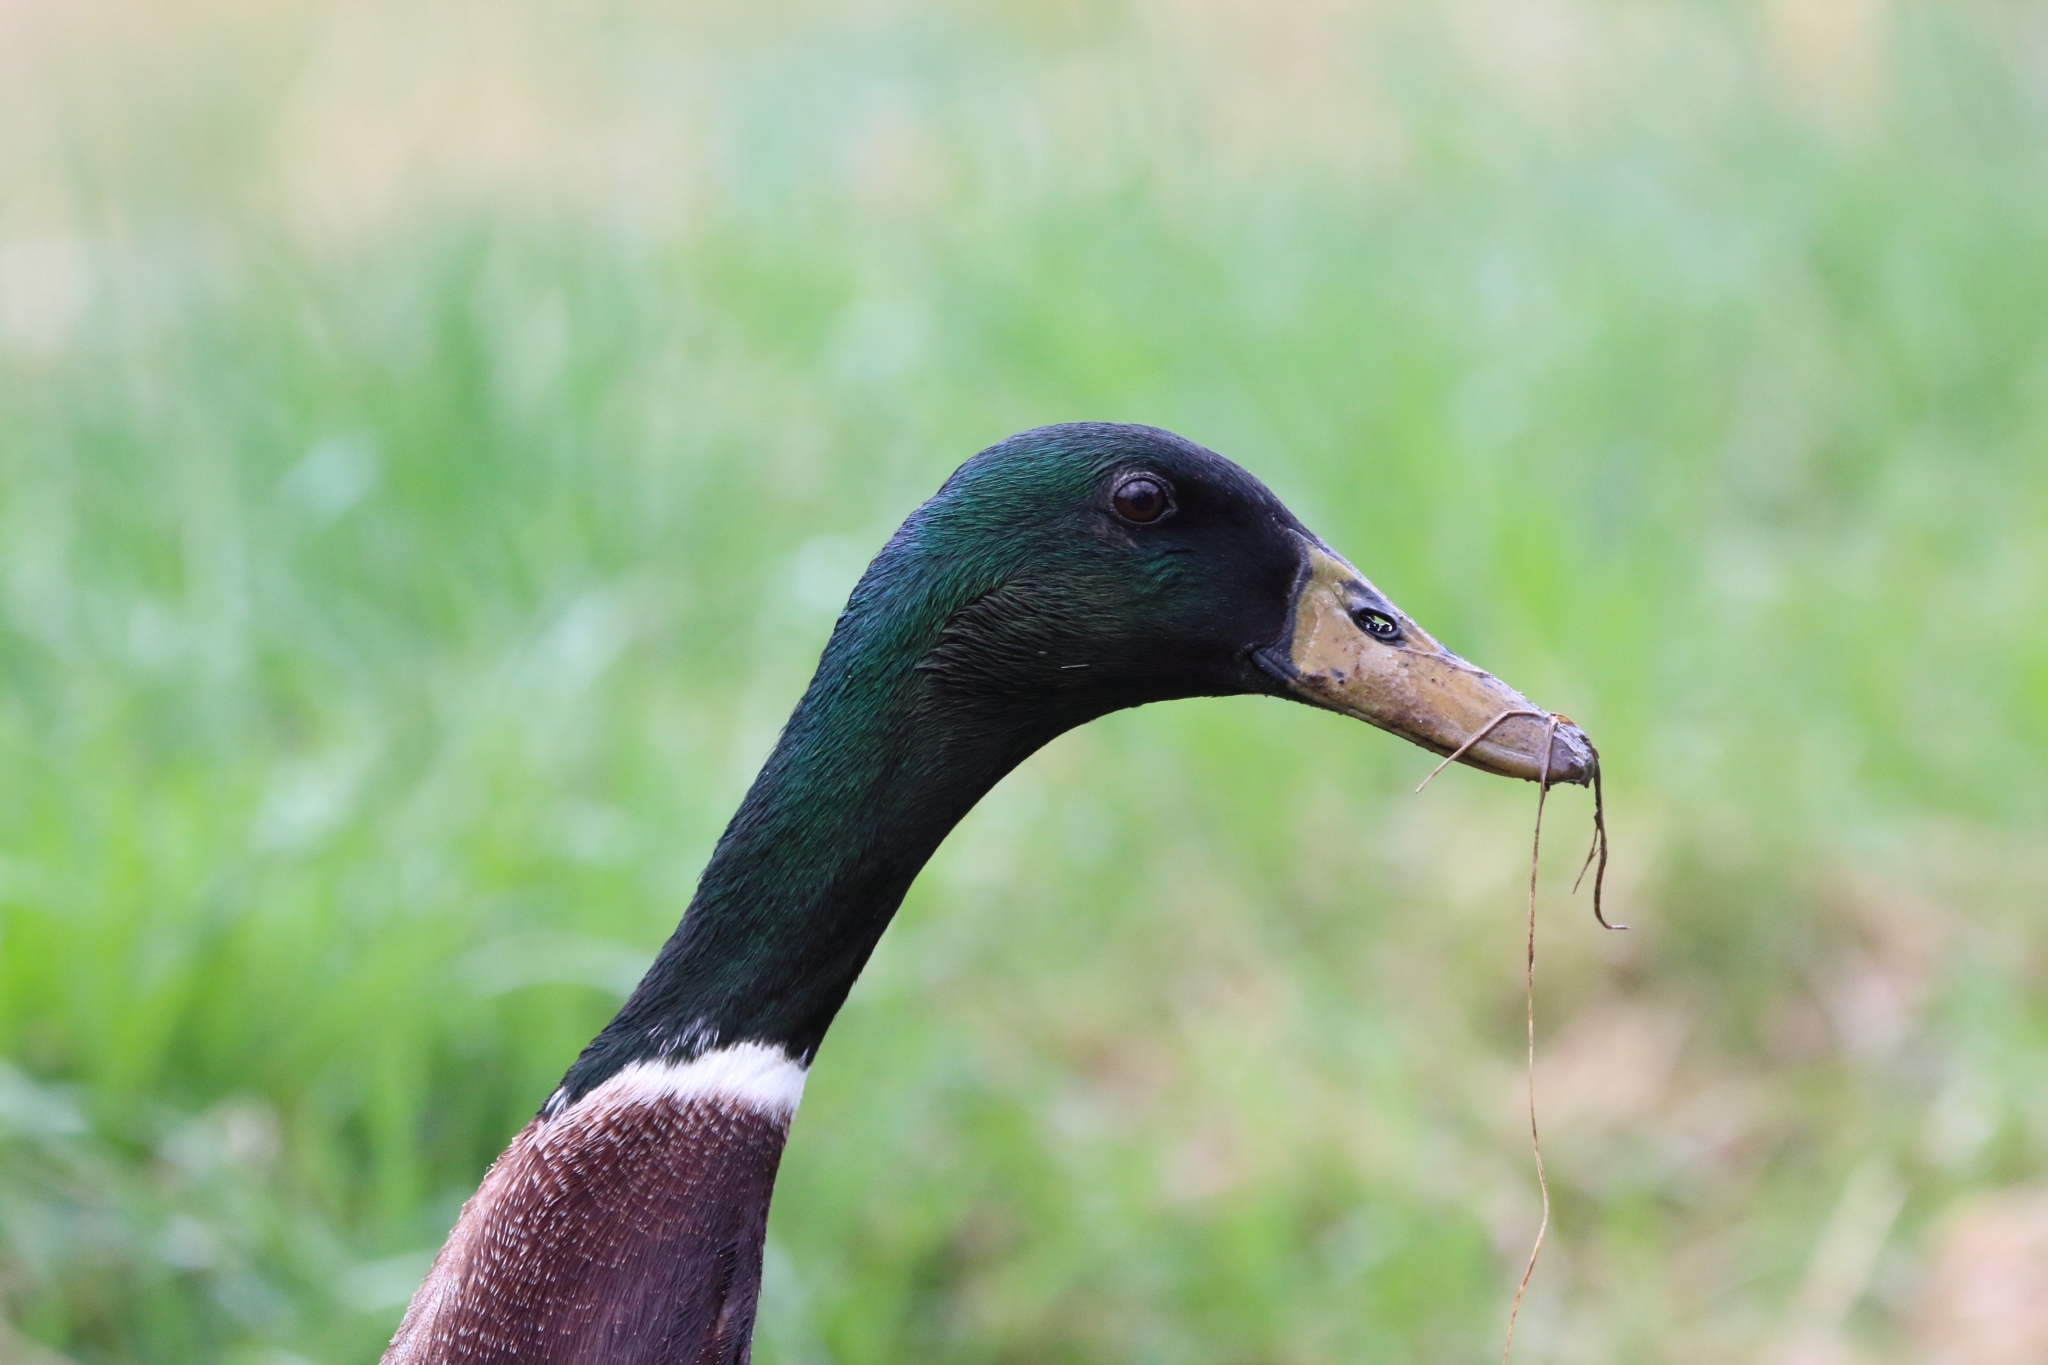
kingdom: Animalia
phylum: Chordata
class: Aves
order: Anseriformes
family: Anatidae
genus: Anas
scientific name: Anas platyrhynchos
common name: Mallard
